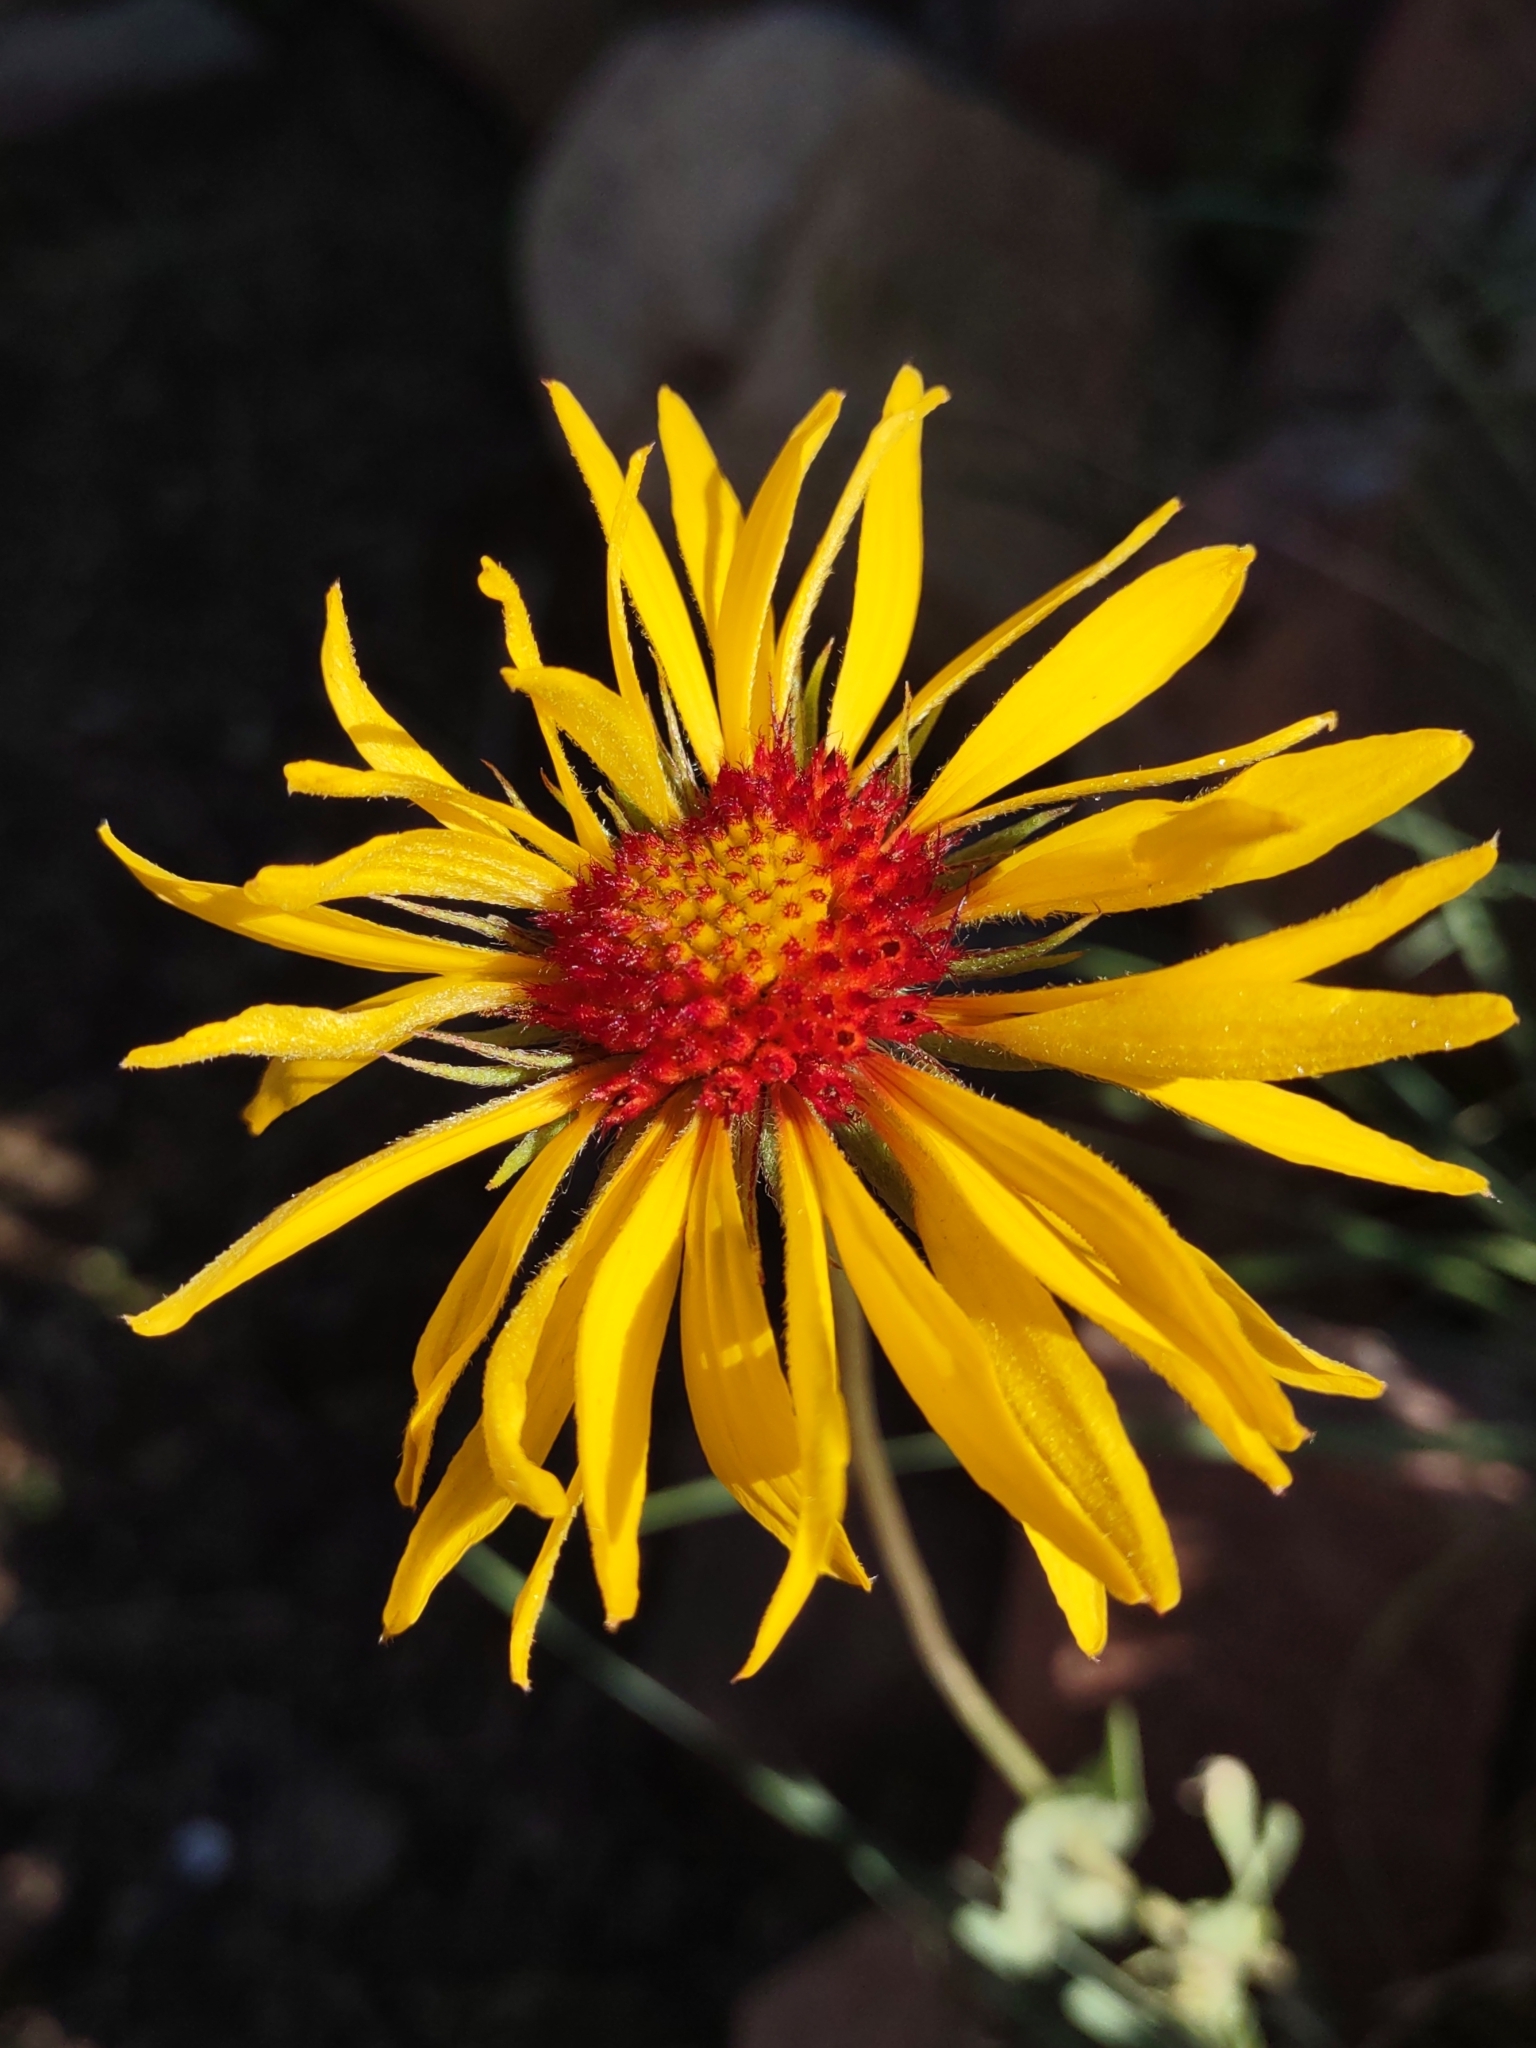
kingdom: Plantae
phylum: Tracheophyta
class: Magnoliopsida
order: Asterales
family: Asteraceae
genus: Gaillardia
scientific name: Gaillardia aristata
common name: Blanket-flower
